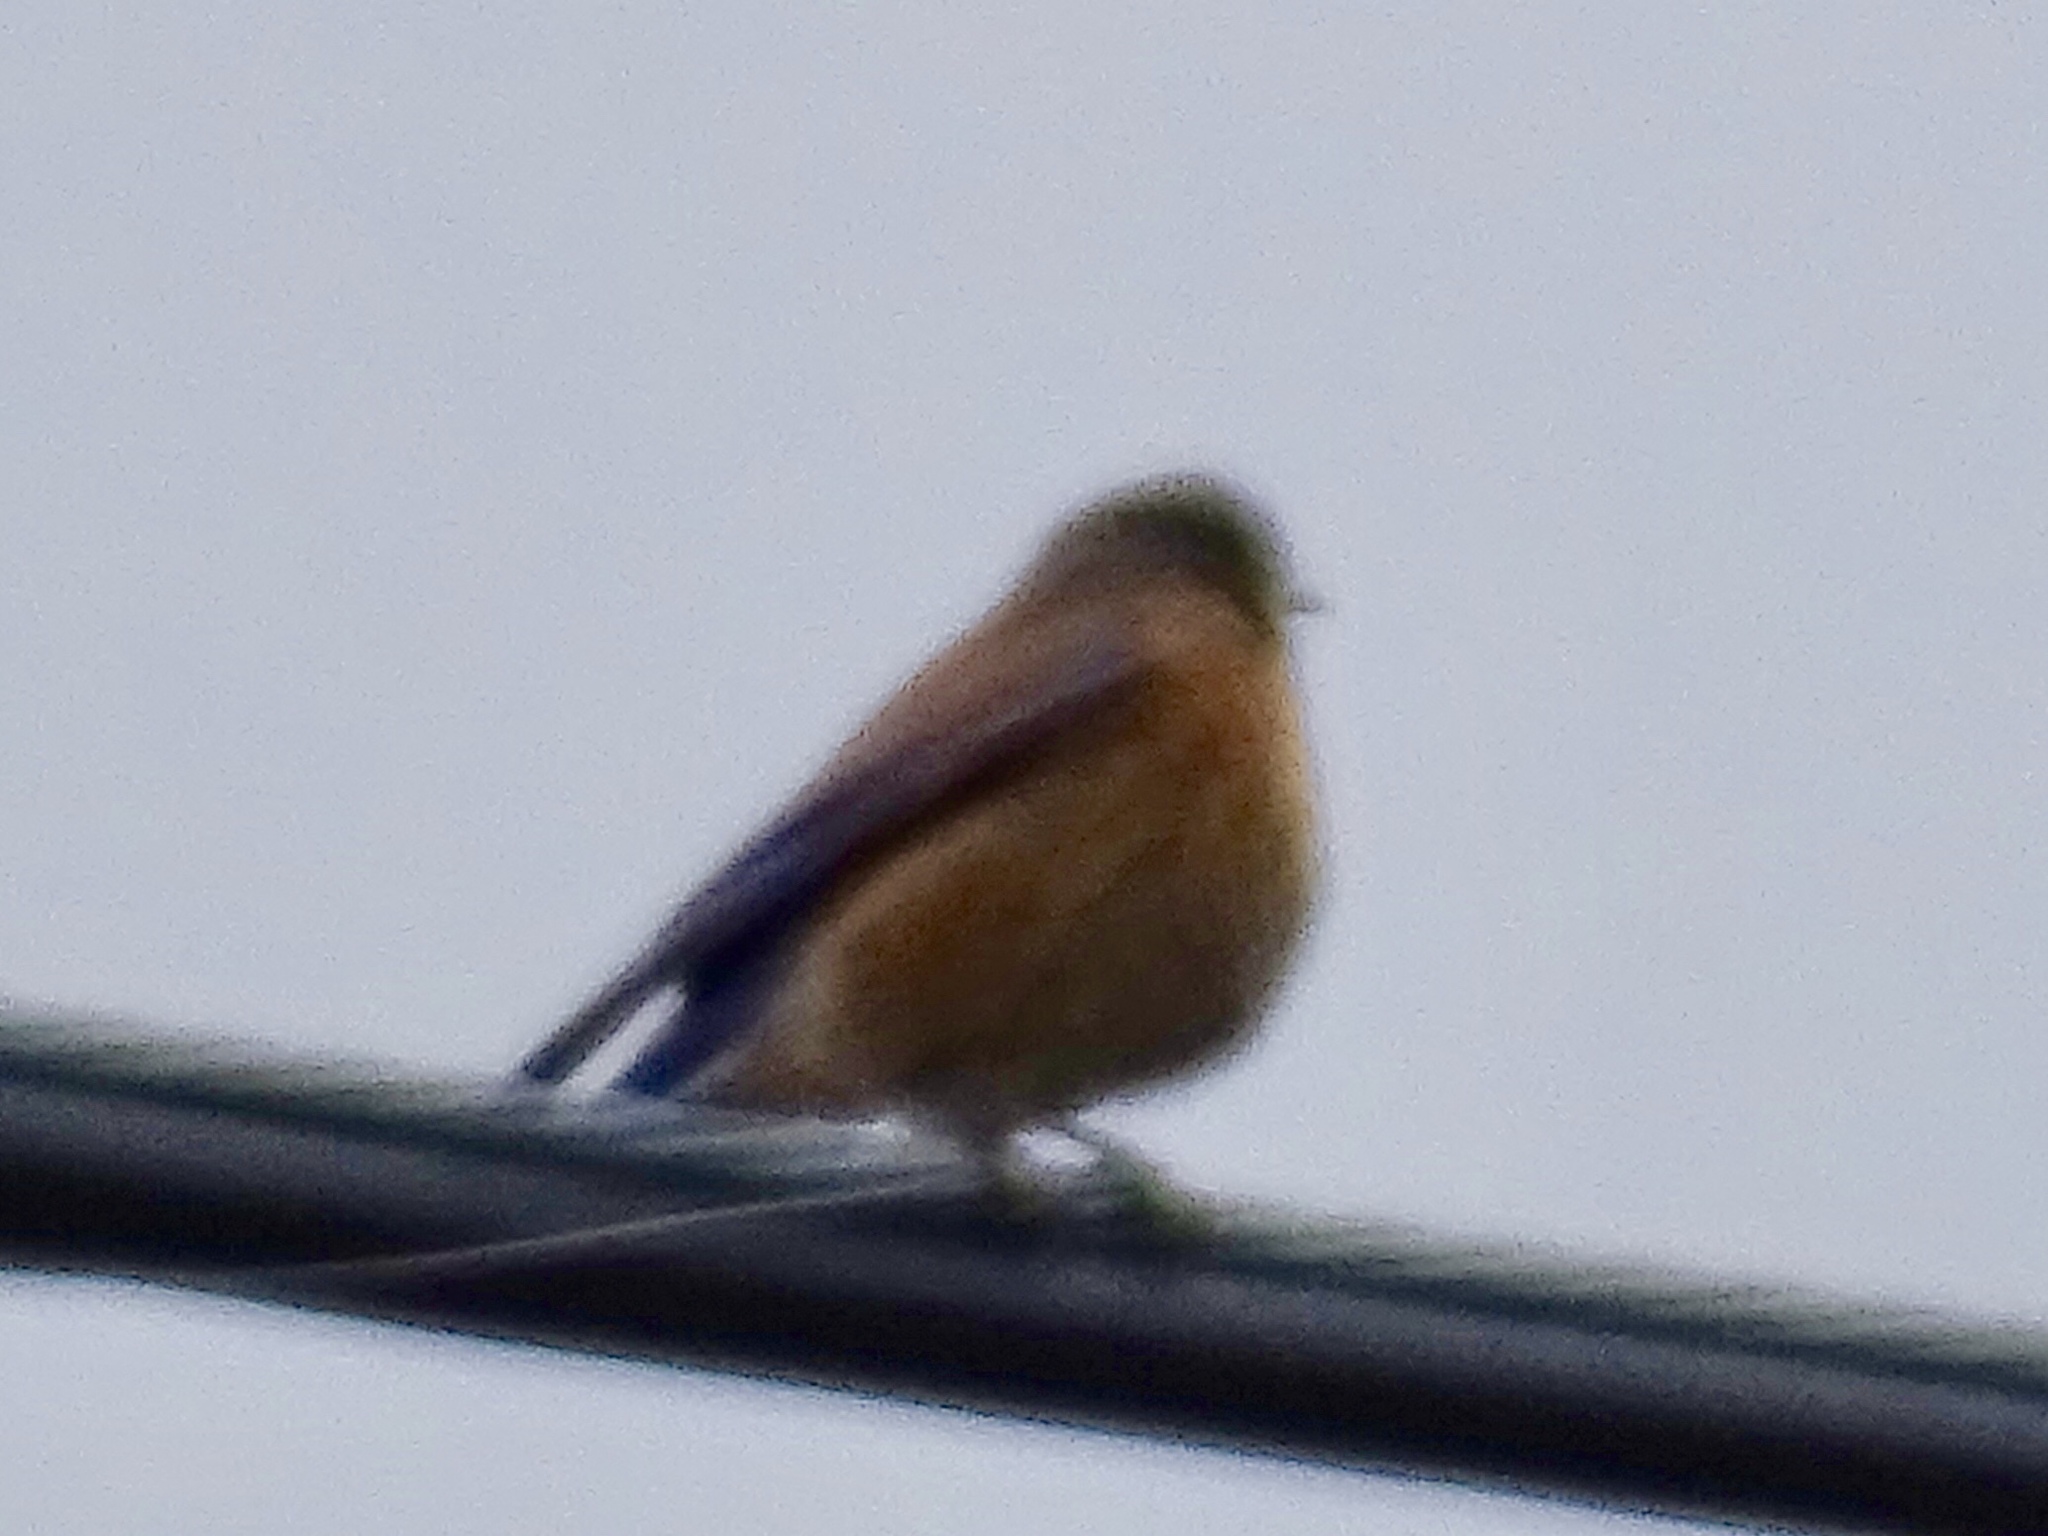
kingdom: Animalia
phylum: Chordata
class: Aves
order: Passeriformes
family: Turdidae
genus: Sialia
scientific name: Sialia mexicana
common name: Western bluebird
